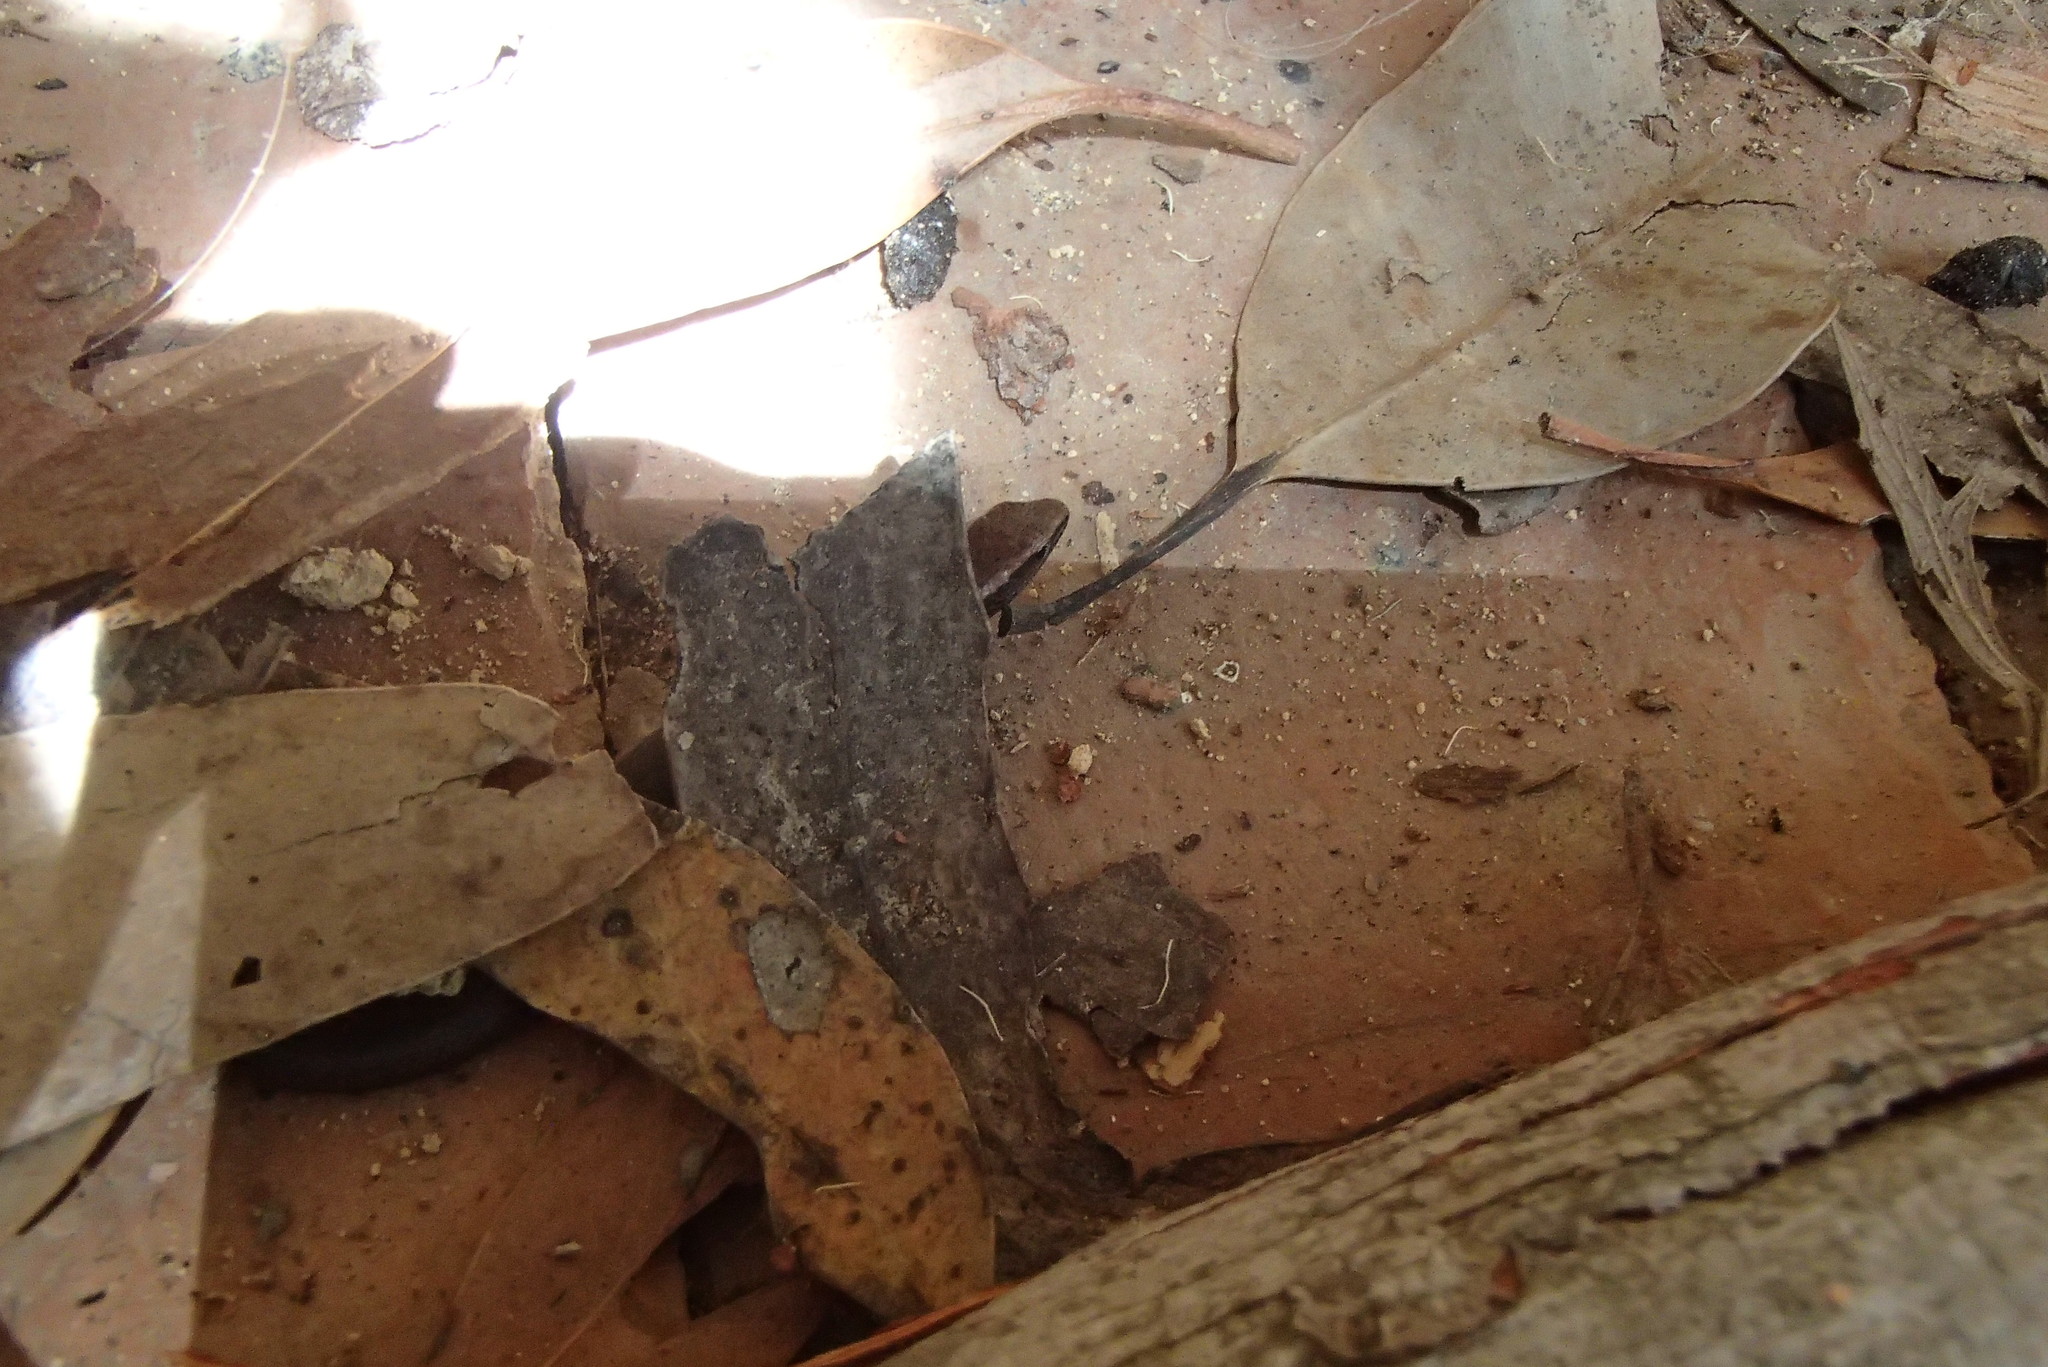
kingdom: Animalia
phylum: Chordata
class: Squamata
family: Scincidae
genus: Lampropholis
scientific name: Lampropholis delicata
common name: Plague skink
